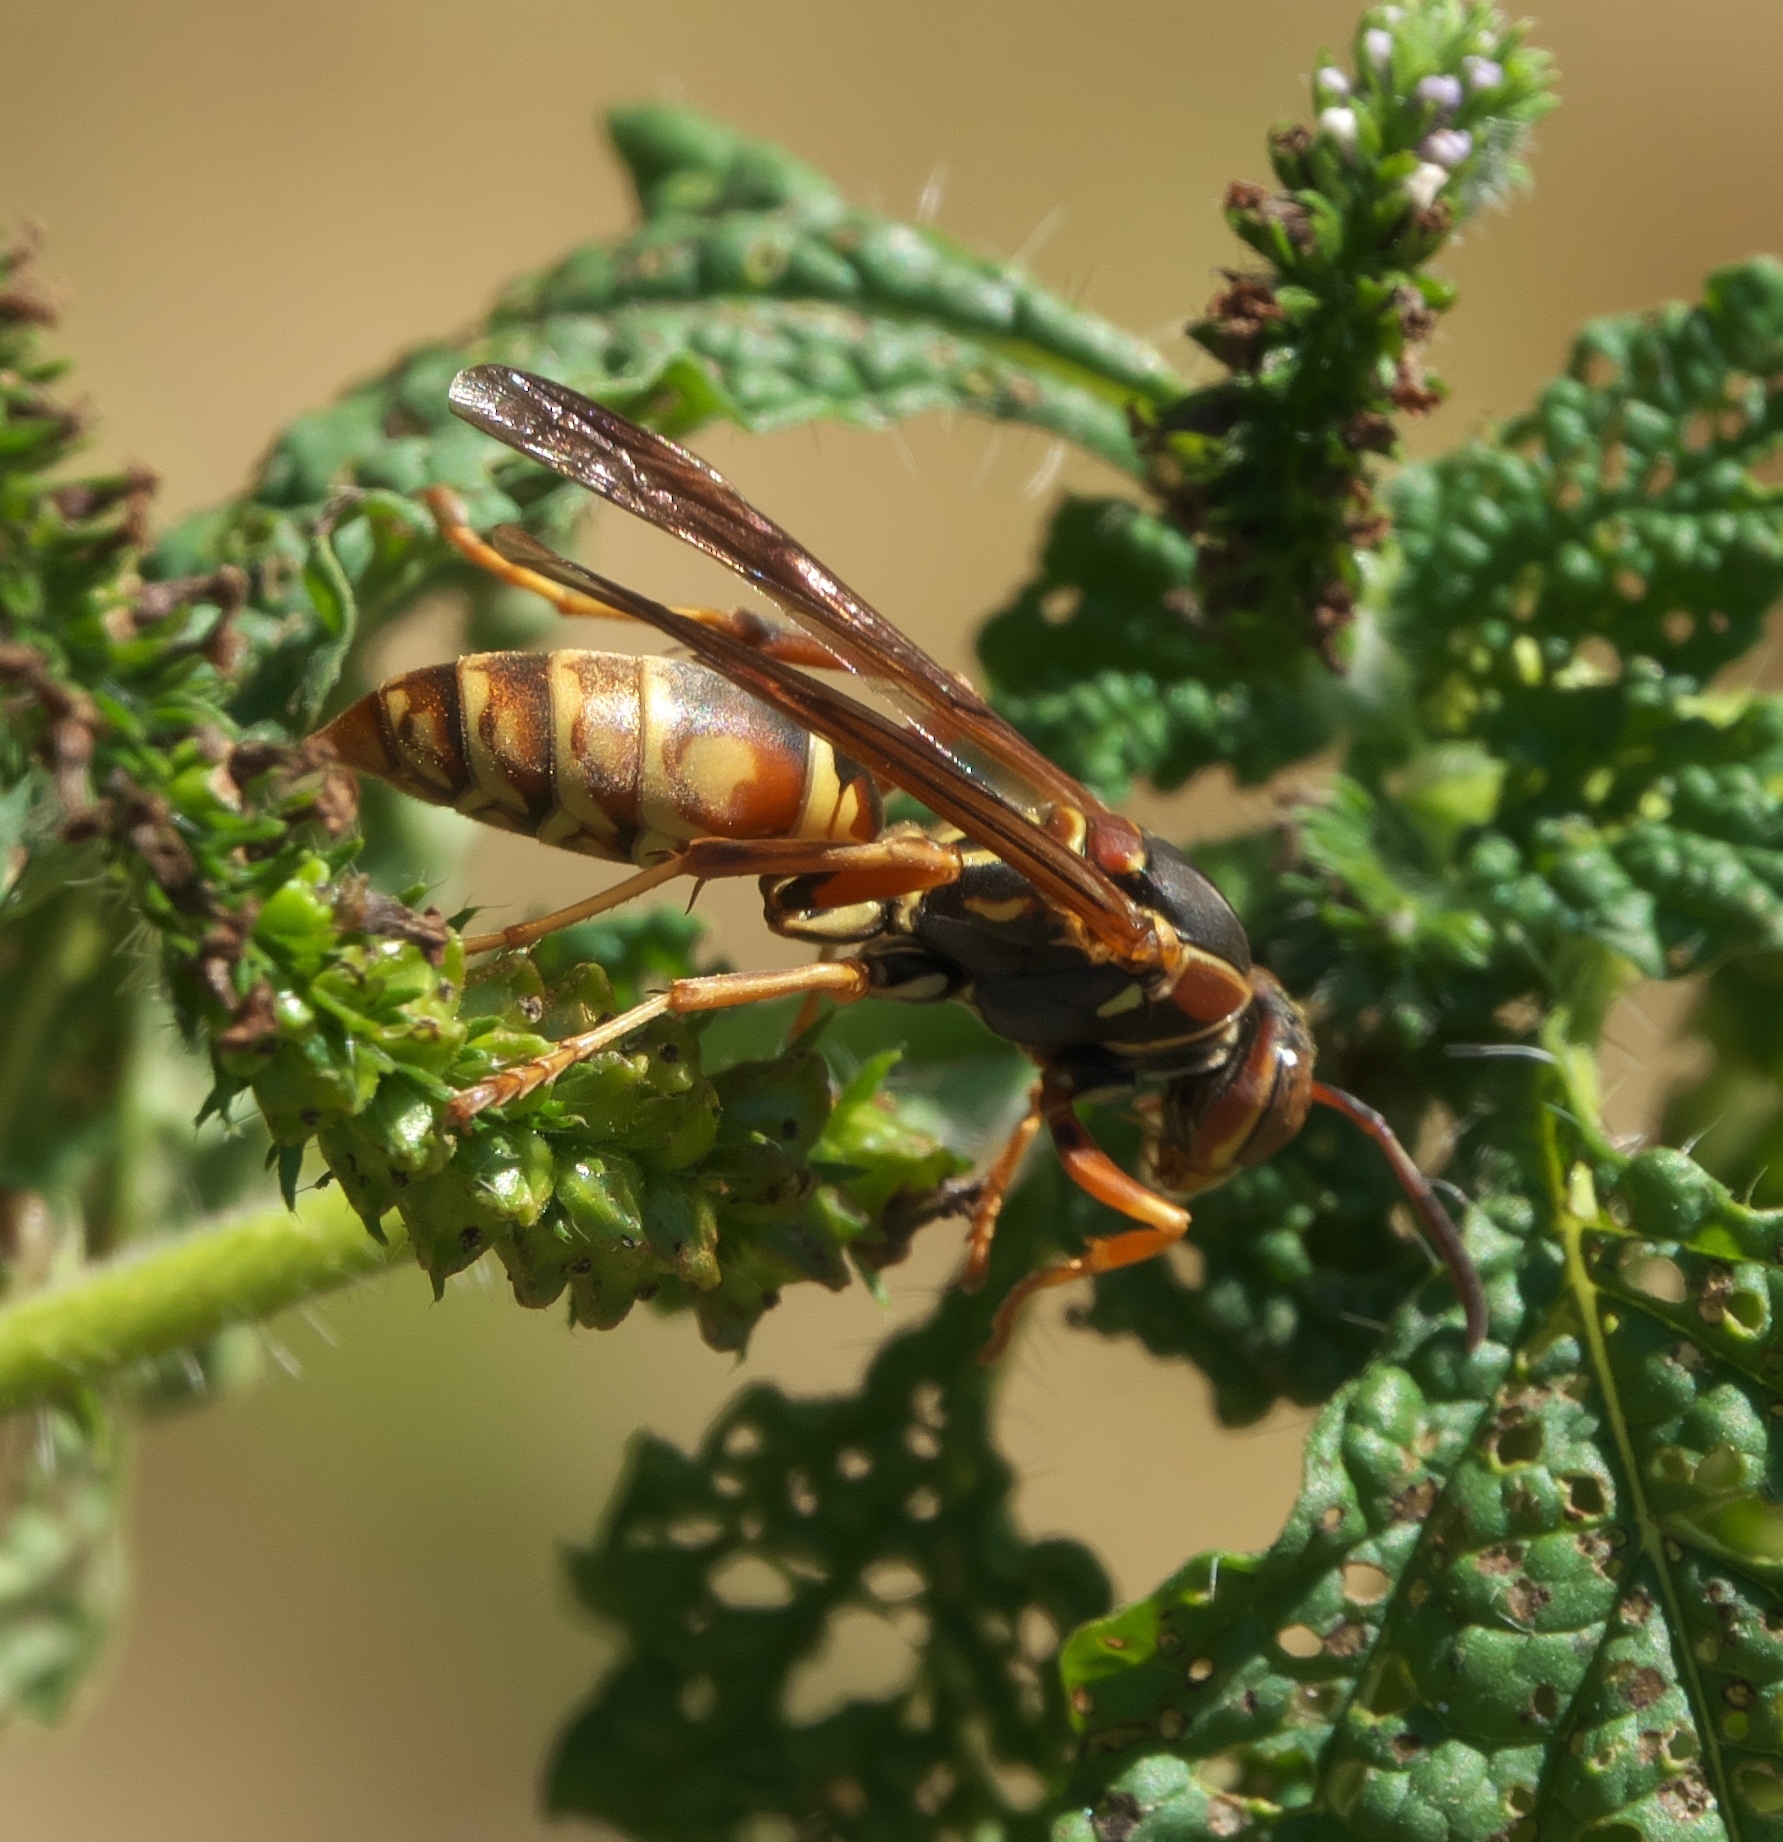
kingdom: Animalia
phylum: Arthropoda
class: Insecta
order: Hymenoptera
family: Eumenidae
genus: Polistes
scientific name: Polistes fuscatus
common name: Dark paper wasp
